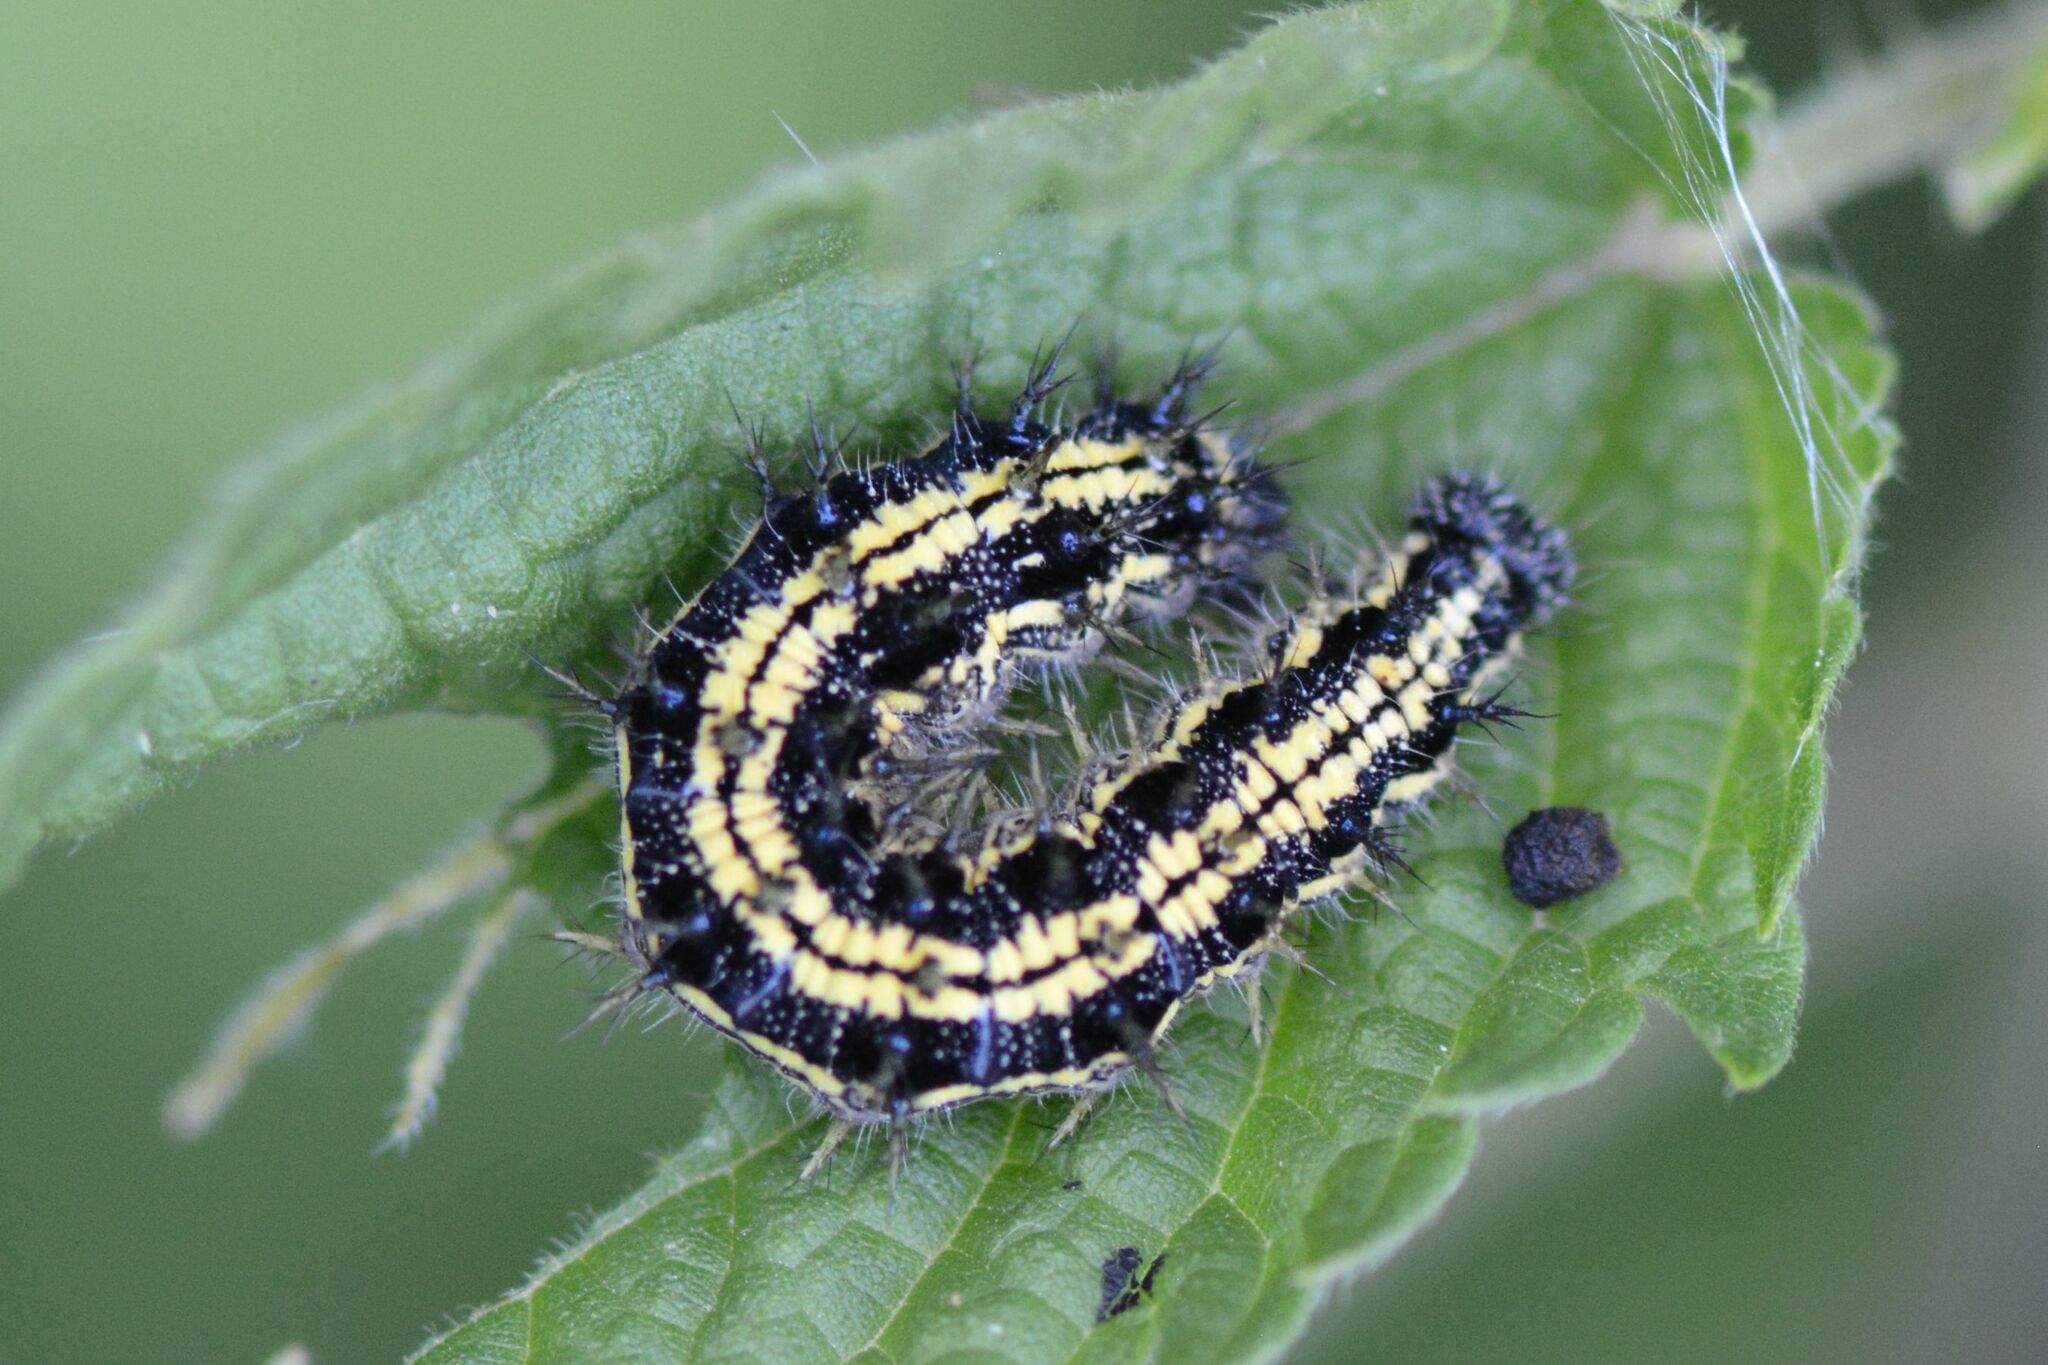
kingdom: Animalia
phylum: Arthropoda
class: Insecta
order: Lepidoptera
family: Nymphalidae
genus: Aglais
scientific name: Aglais urticae
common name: Small tortoiseshell
